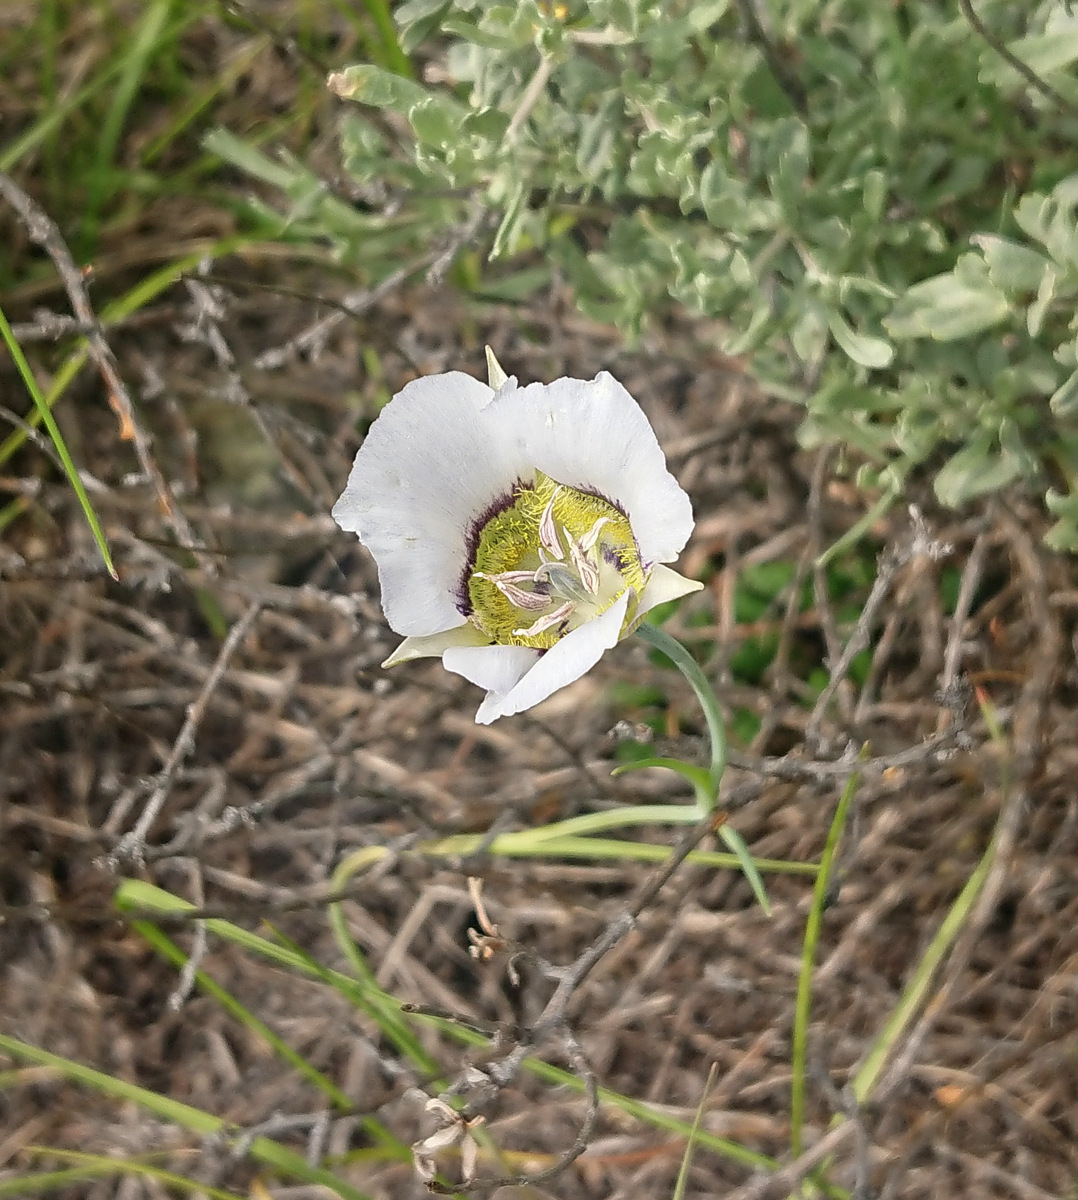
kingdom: Plantae
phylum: Tracheophyta
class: Liliopsida
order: Liliales
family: Liliaceae
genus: Calochortus
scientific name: Calochortus gunnisonii
